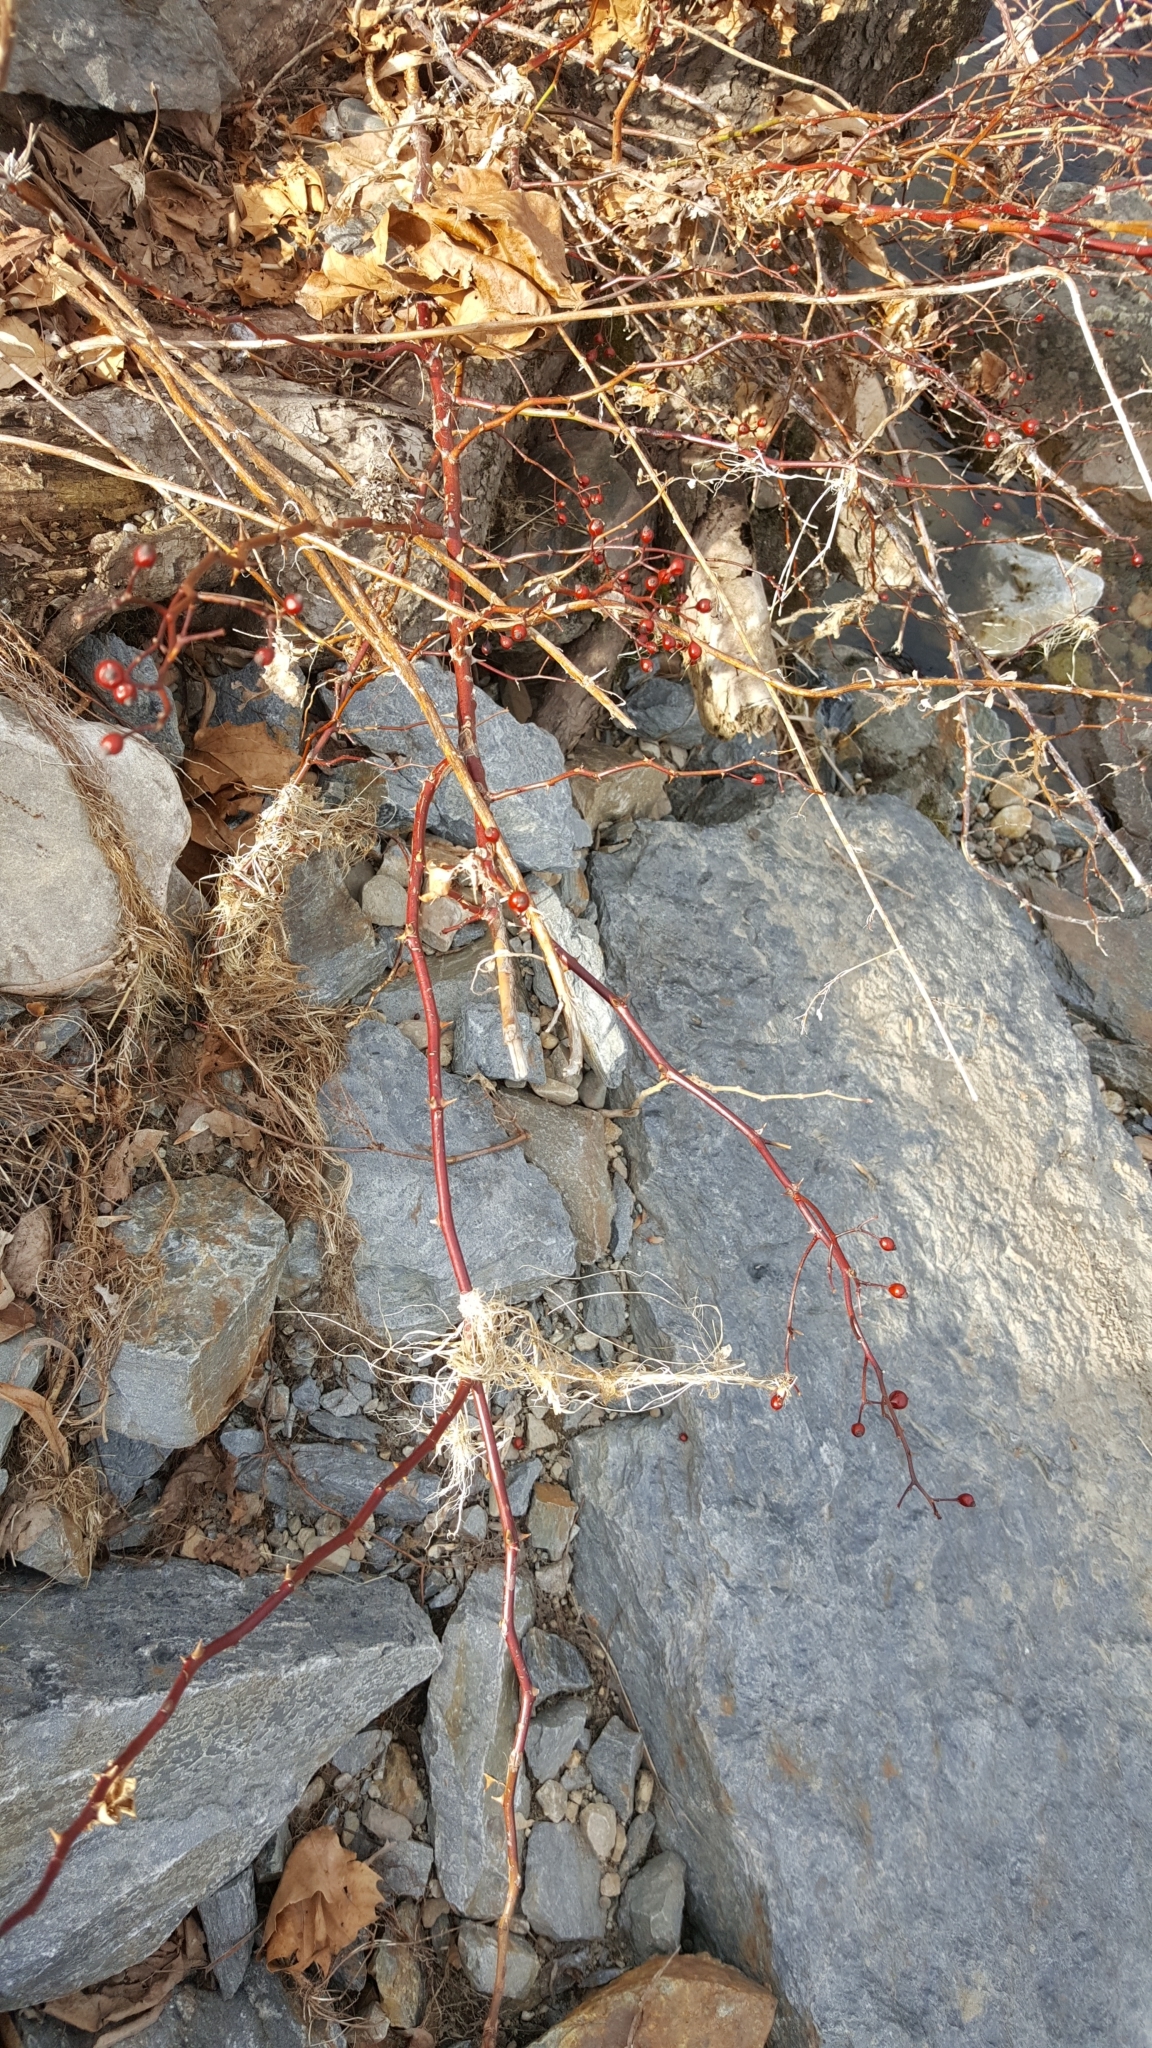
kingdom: Plantae
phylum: Tracheophyta
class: Magnoliopsida
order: Rosales
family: Rosaceae
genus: Rosa
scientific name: Rosa multiflora
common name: Multiflora rose
